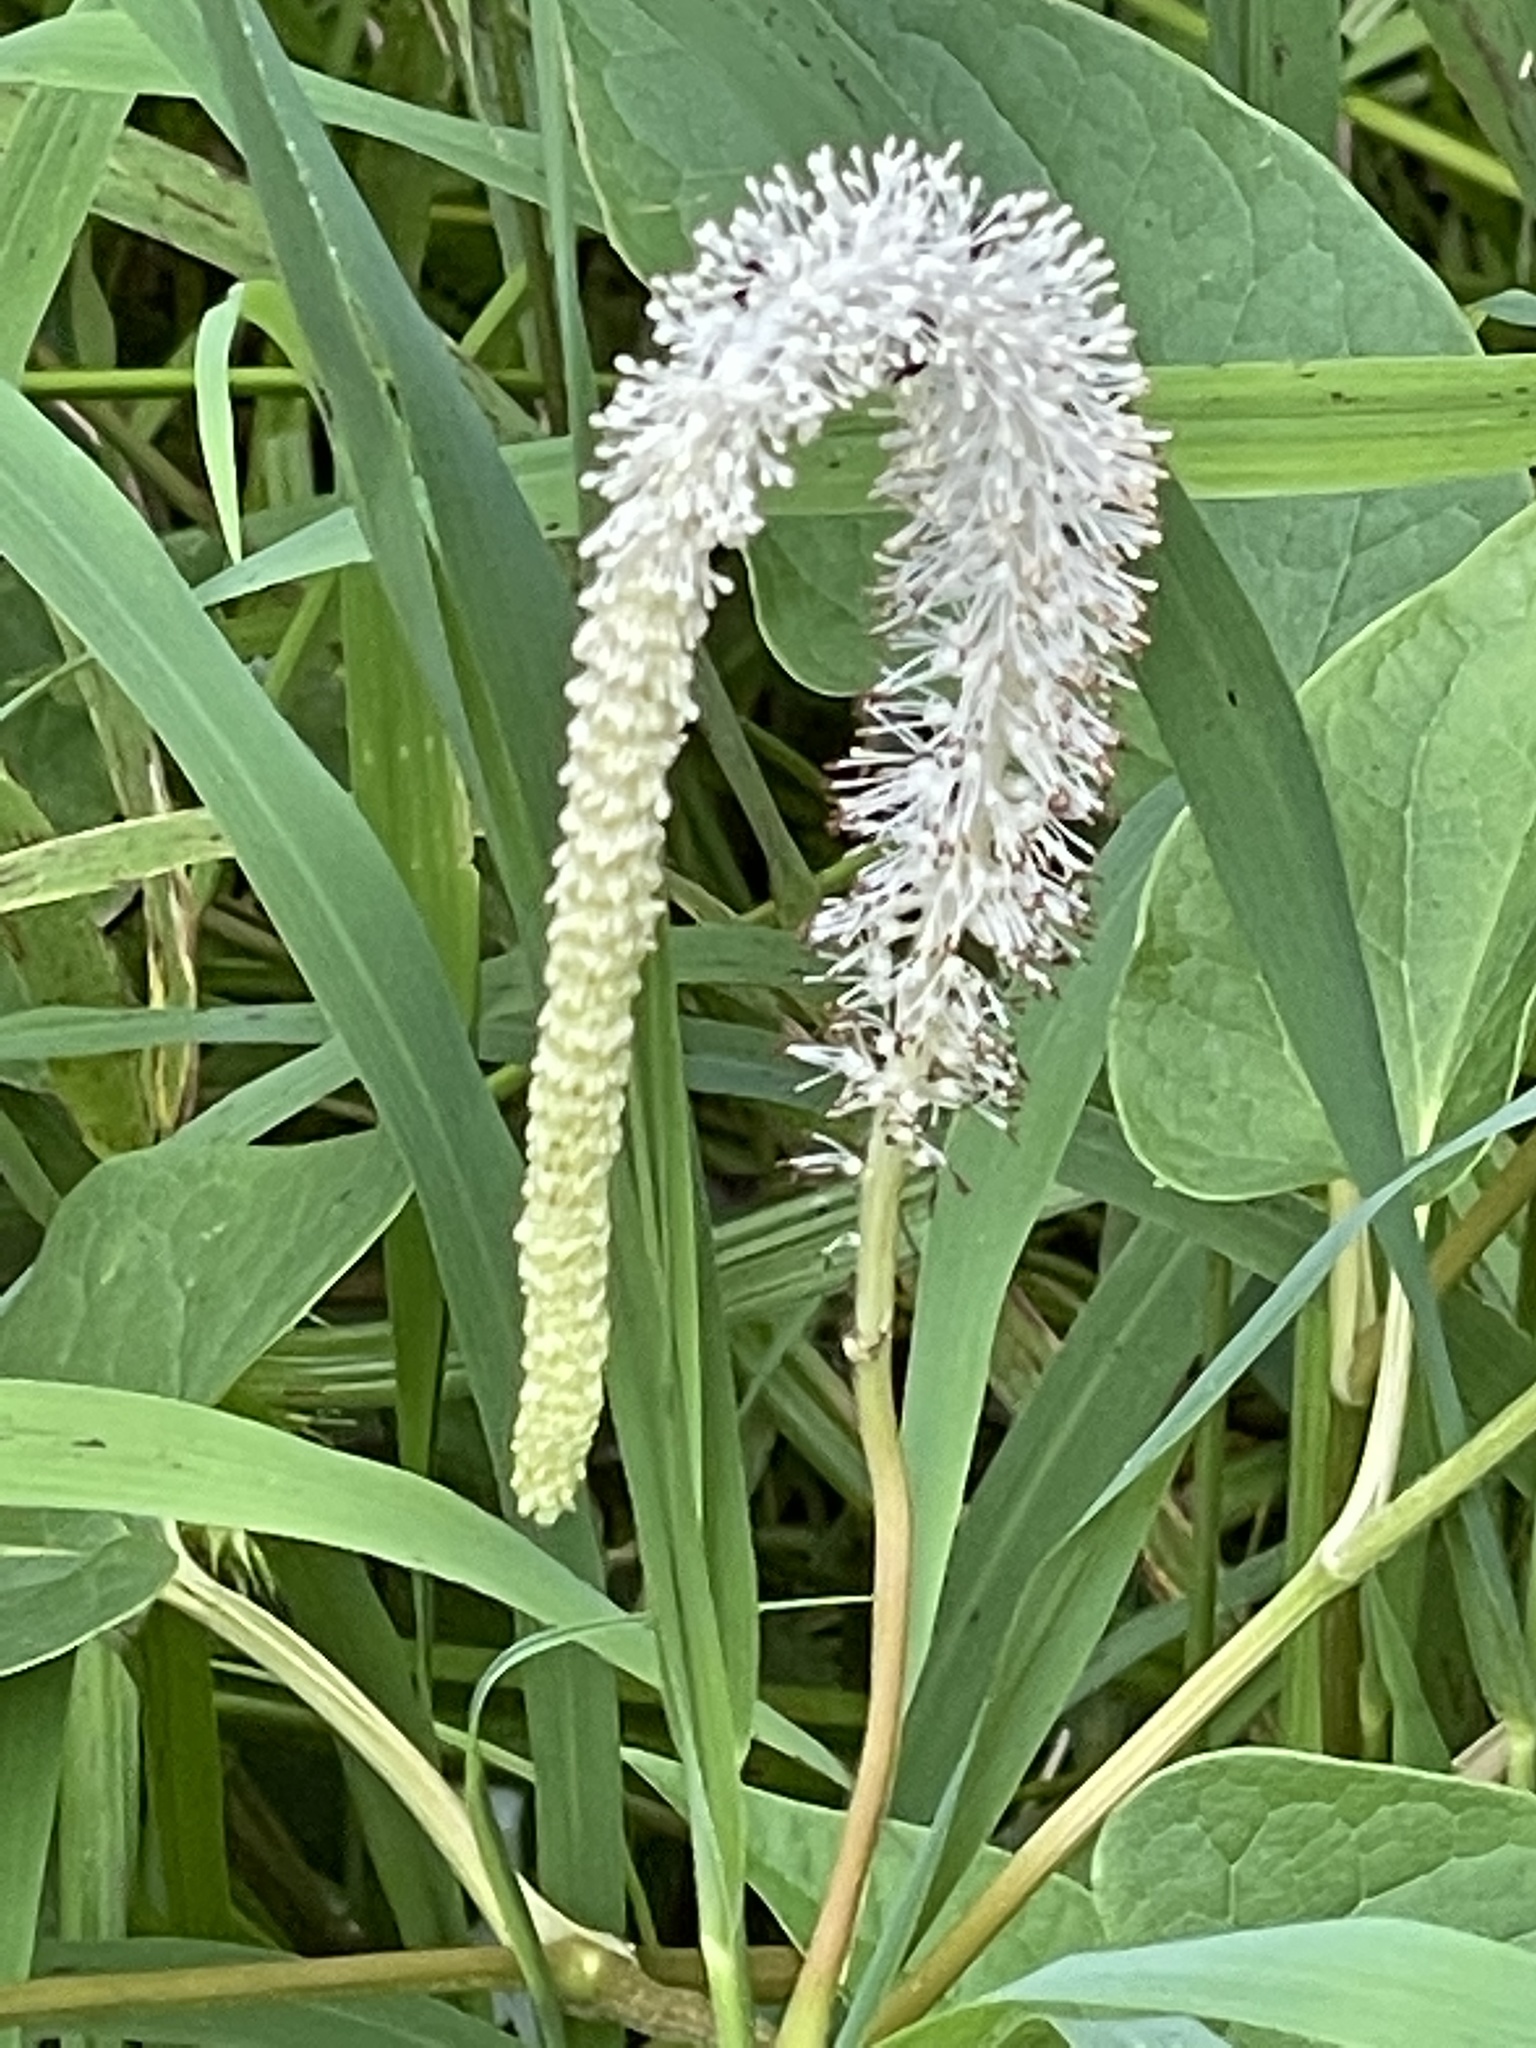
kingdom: Plantae
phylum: Tracheophyta
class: Magnoliopsida
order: Piperales
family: Saururaceae
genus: Saururus
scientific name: Saururus cernuus
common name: Lizard's-tail
